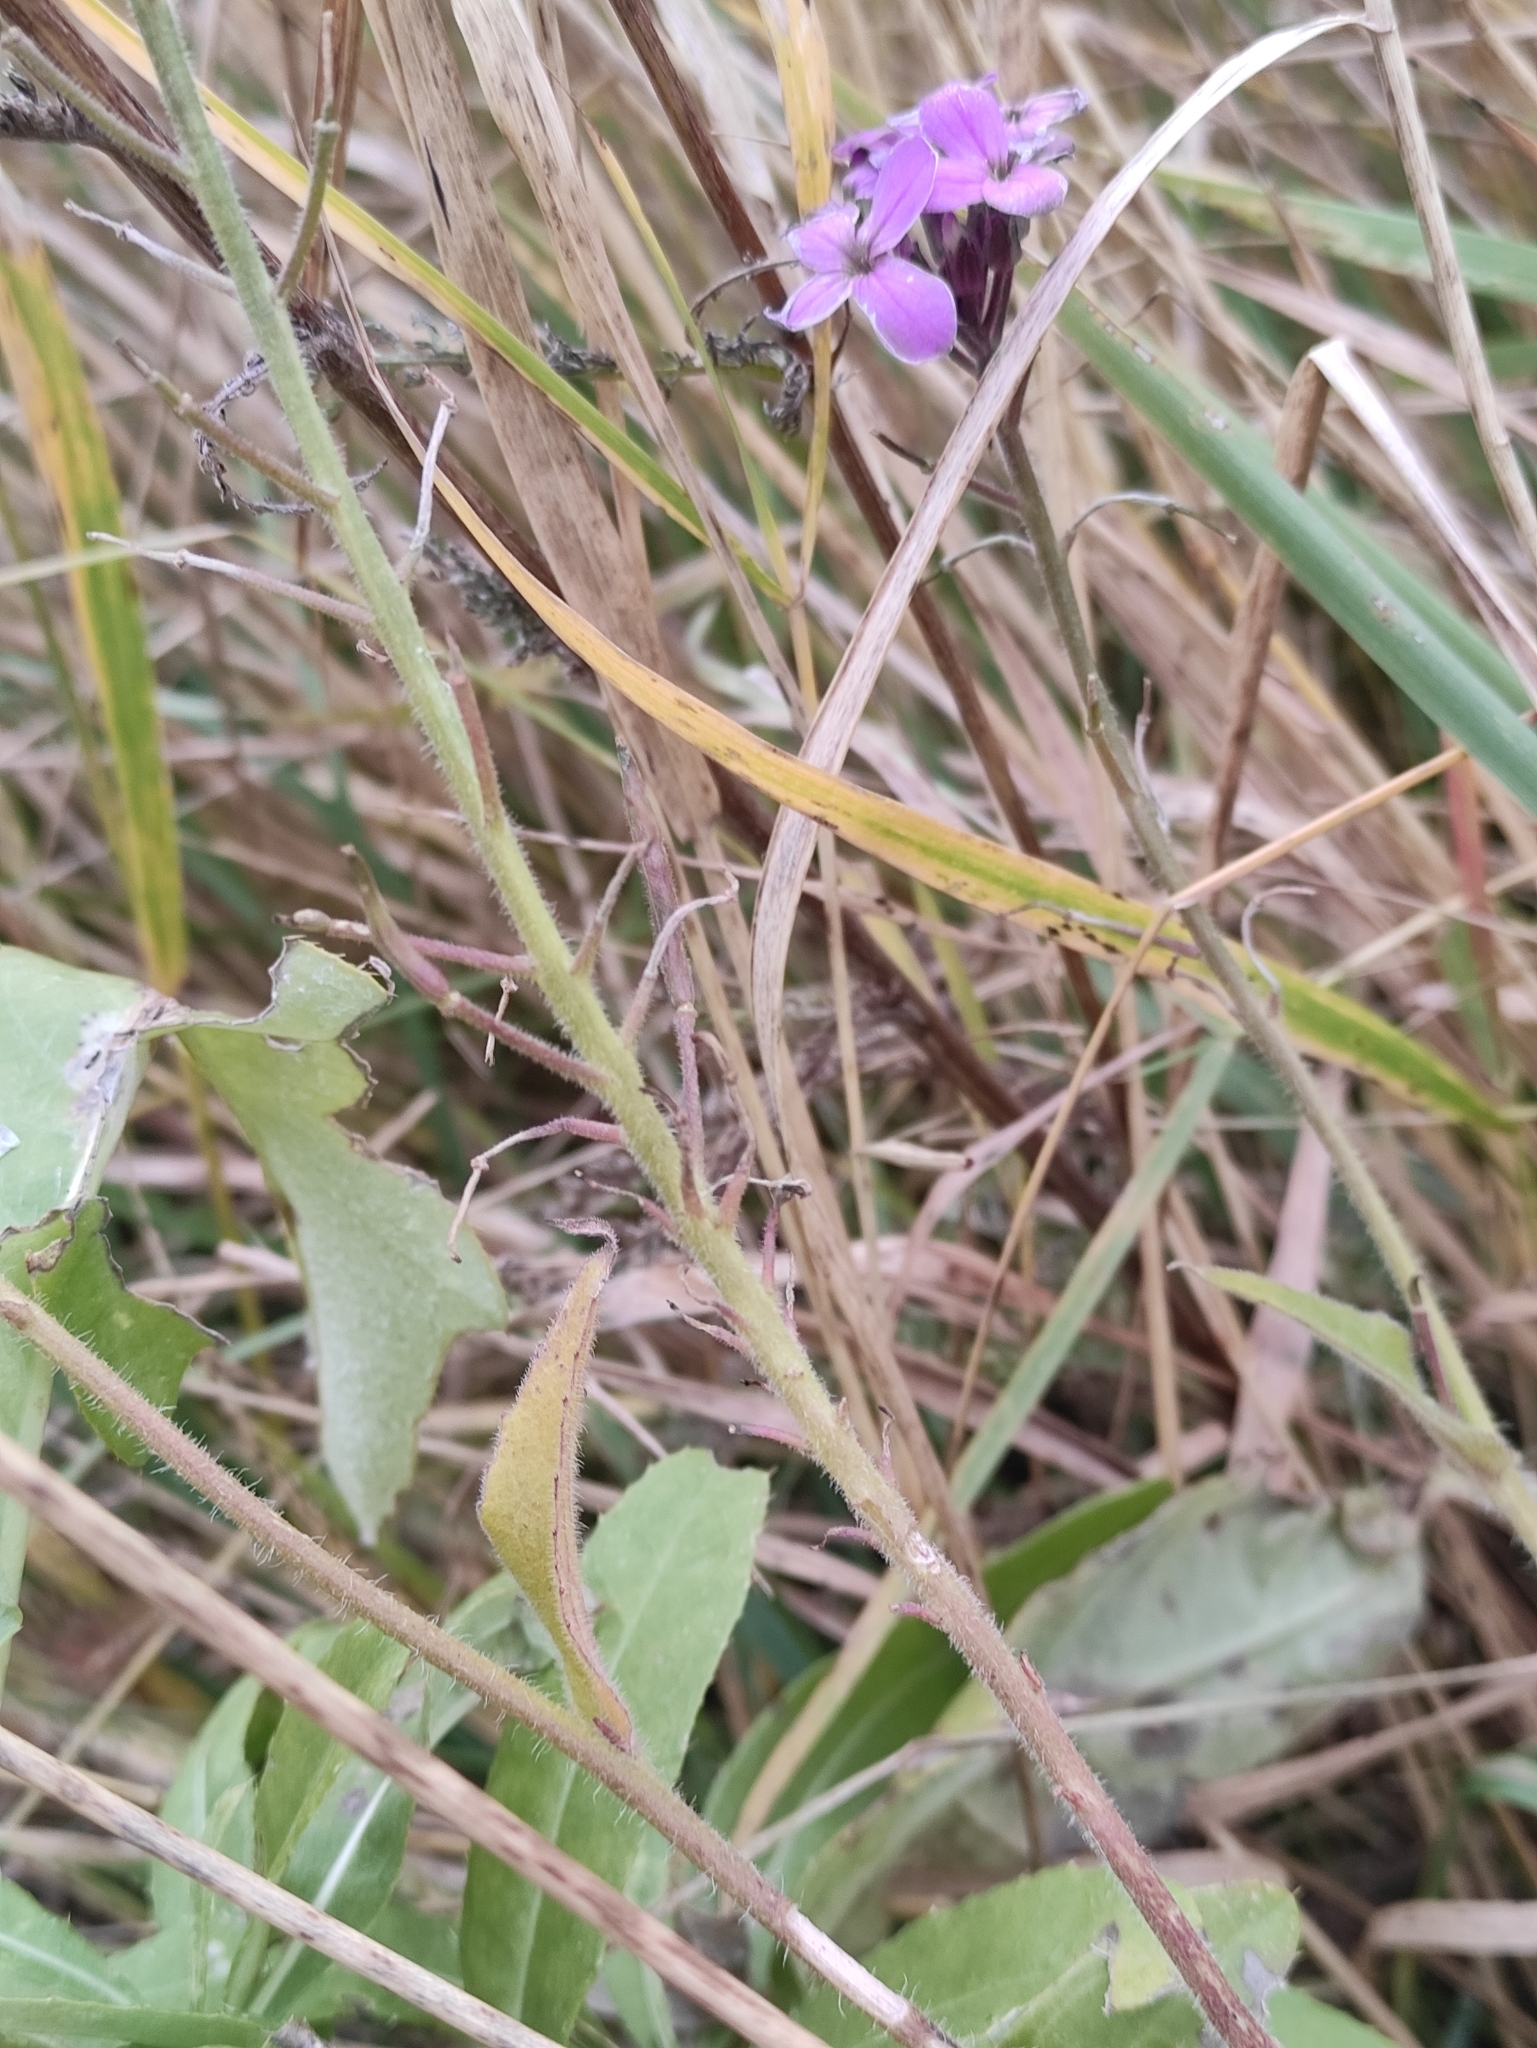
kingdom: Plantae
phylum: Tracheophyta
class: Magnoliopsida
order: Brassicales
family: Brassicaceae
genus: Hesperis
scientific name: Hesperis sibirica
